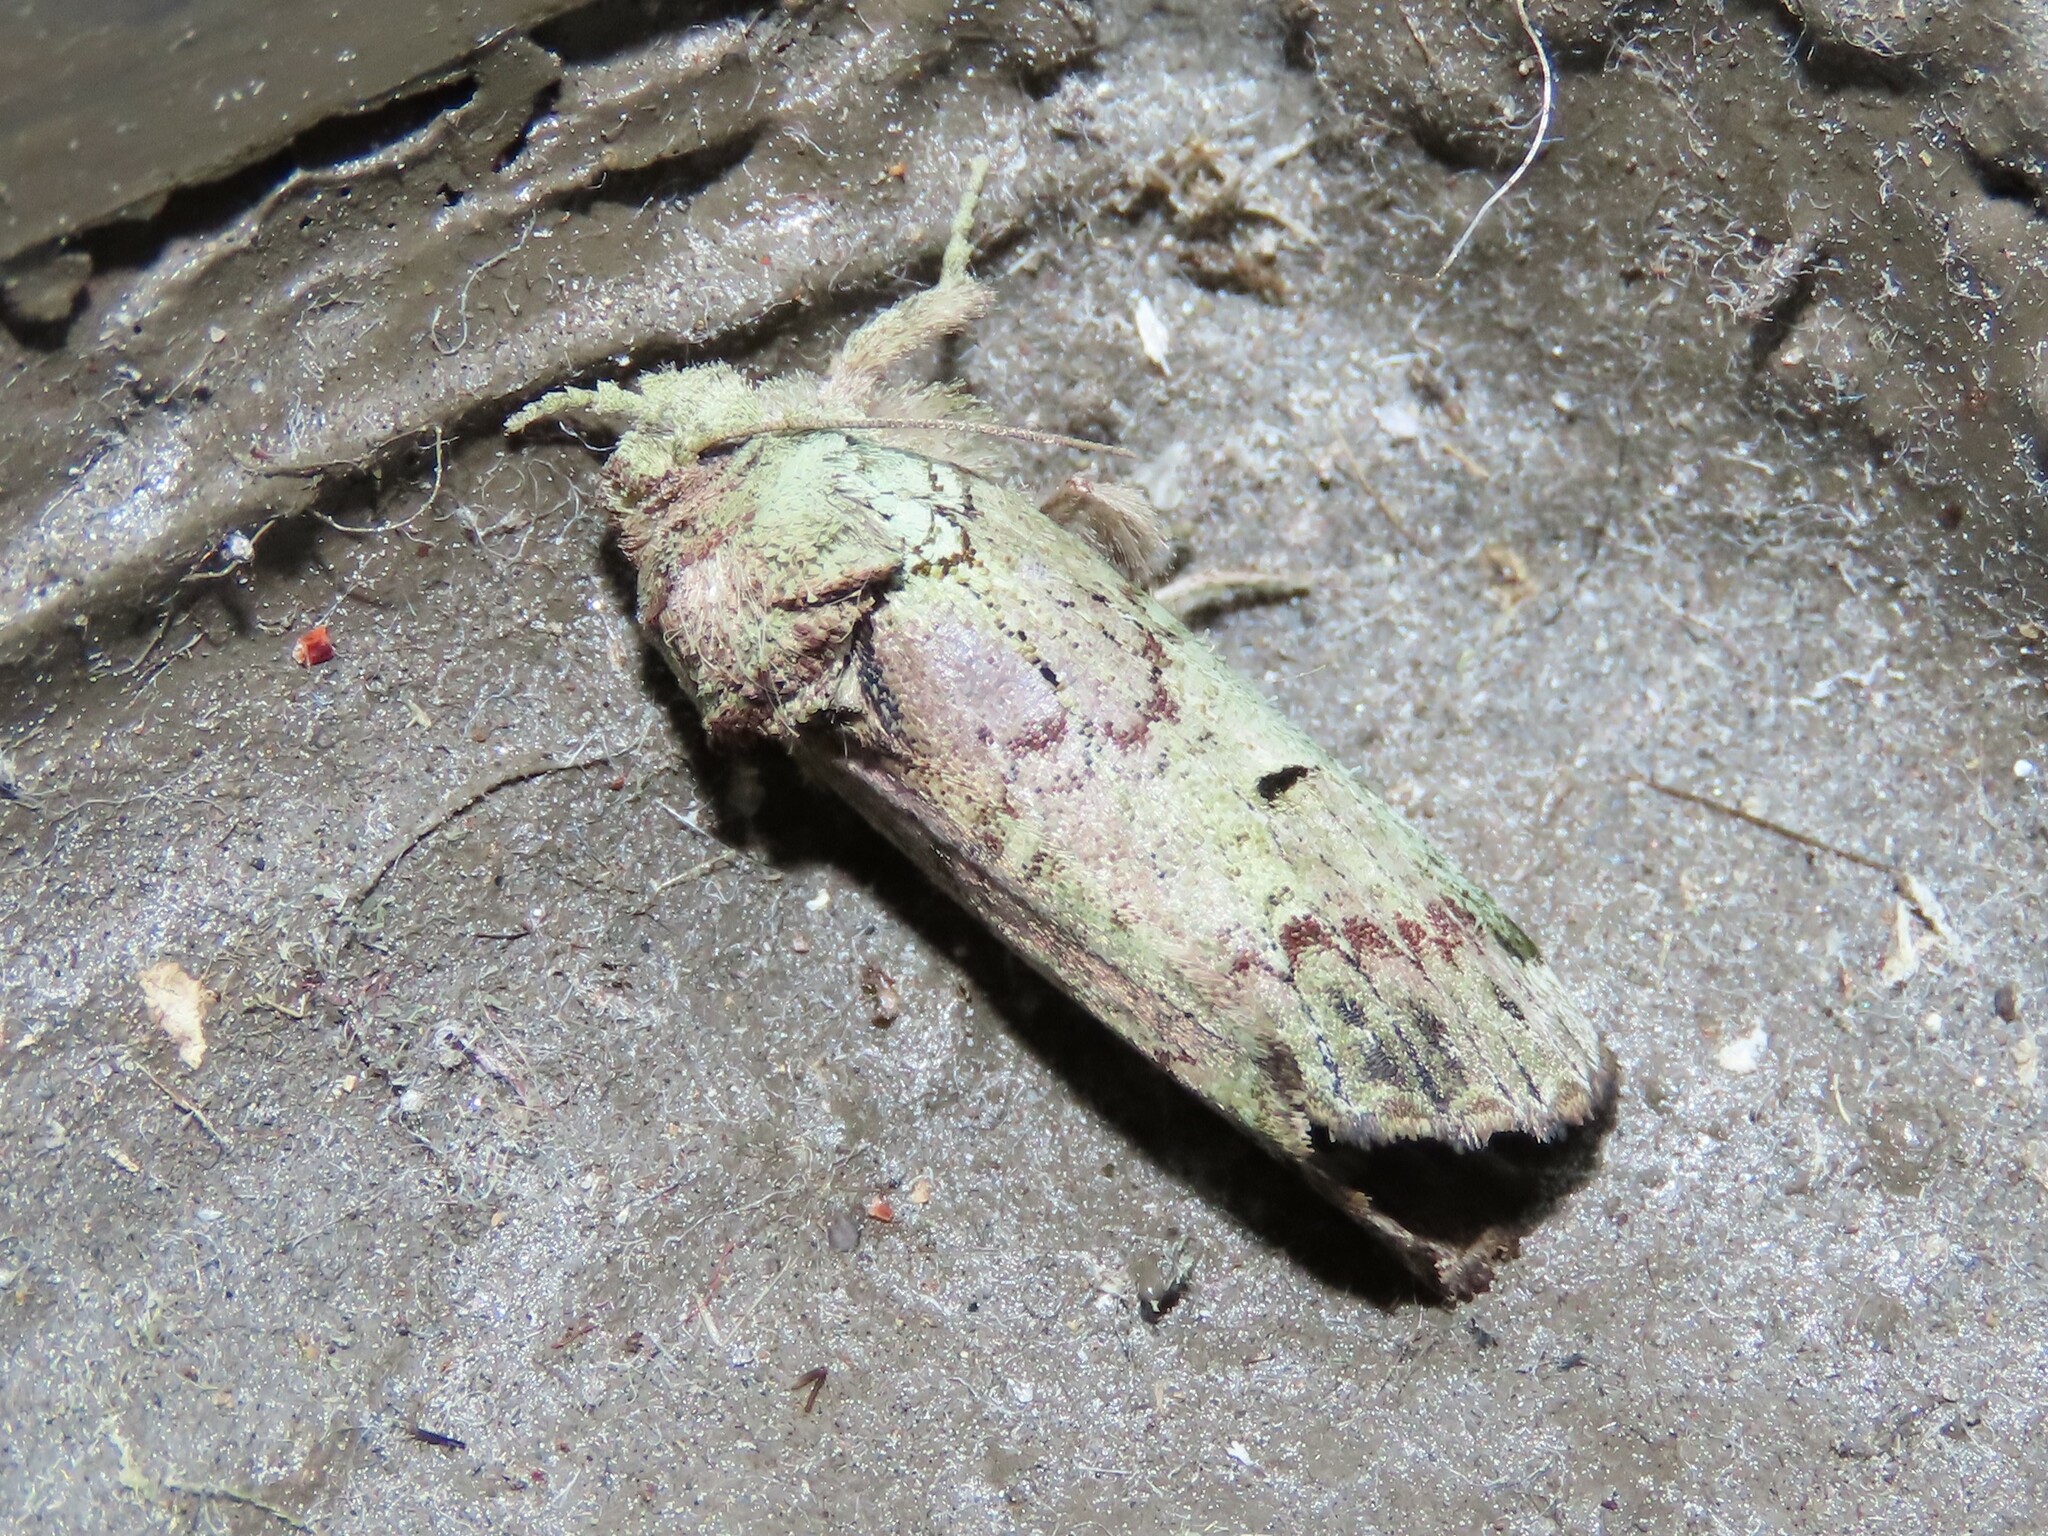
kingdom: Animalia
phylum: Arthropoda
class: Insecta
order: Lepidoptera
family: Notodontidae
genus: Schizura
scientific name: Schizura
